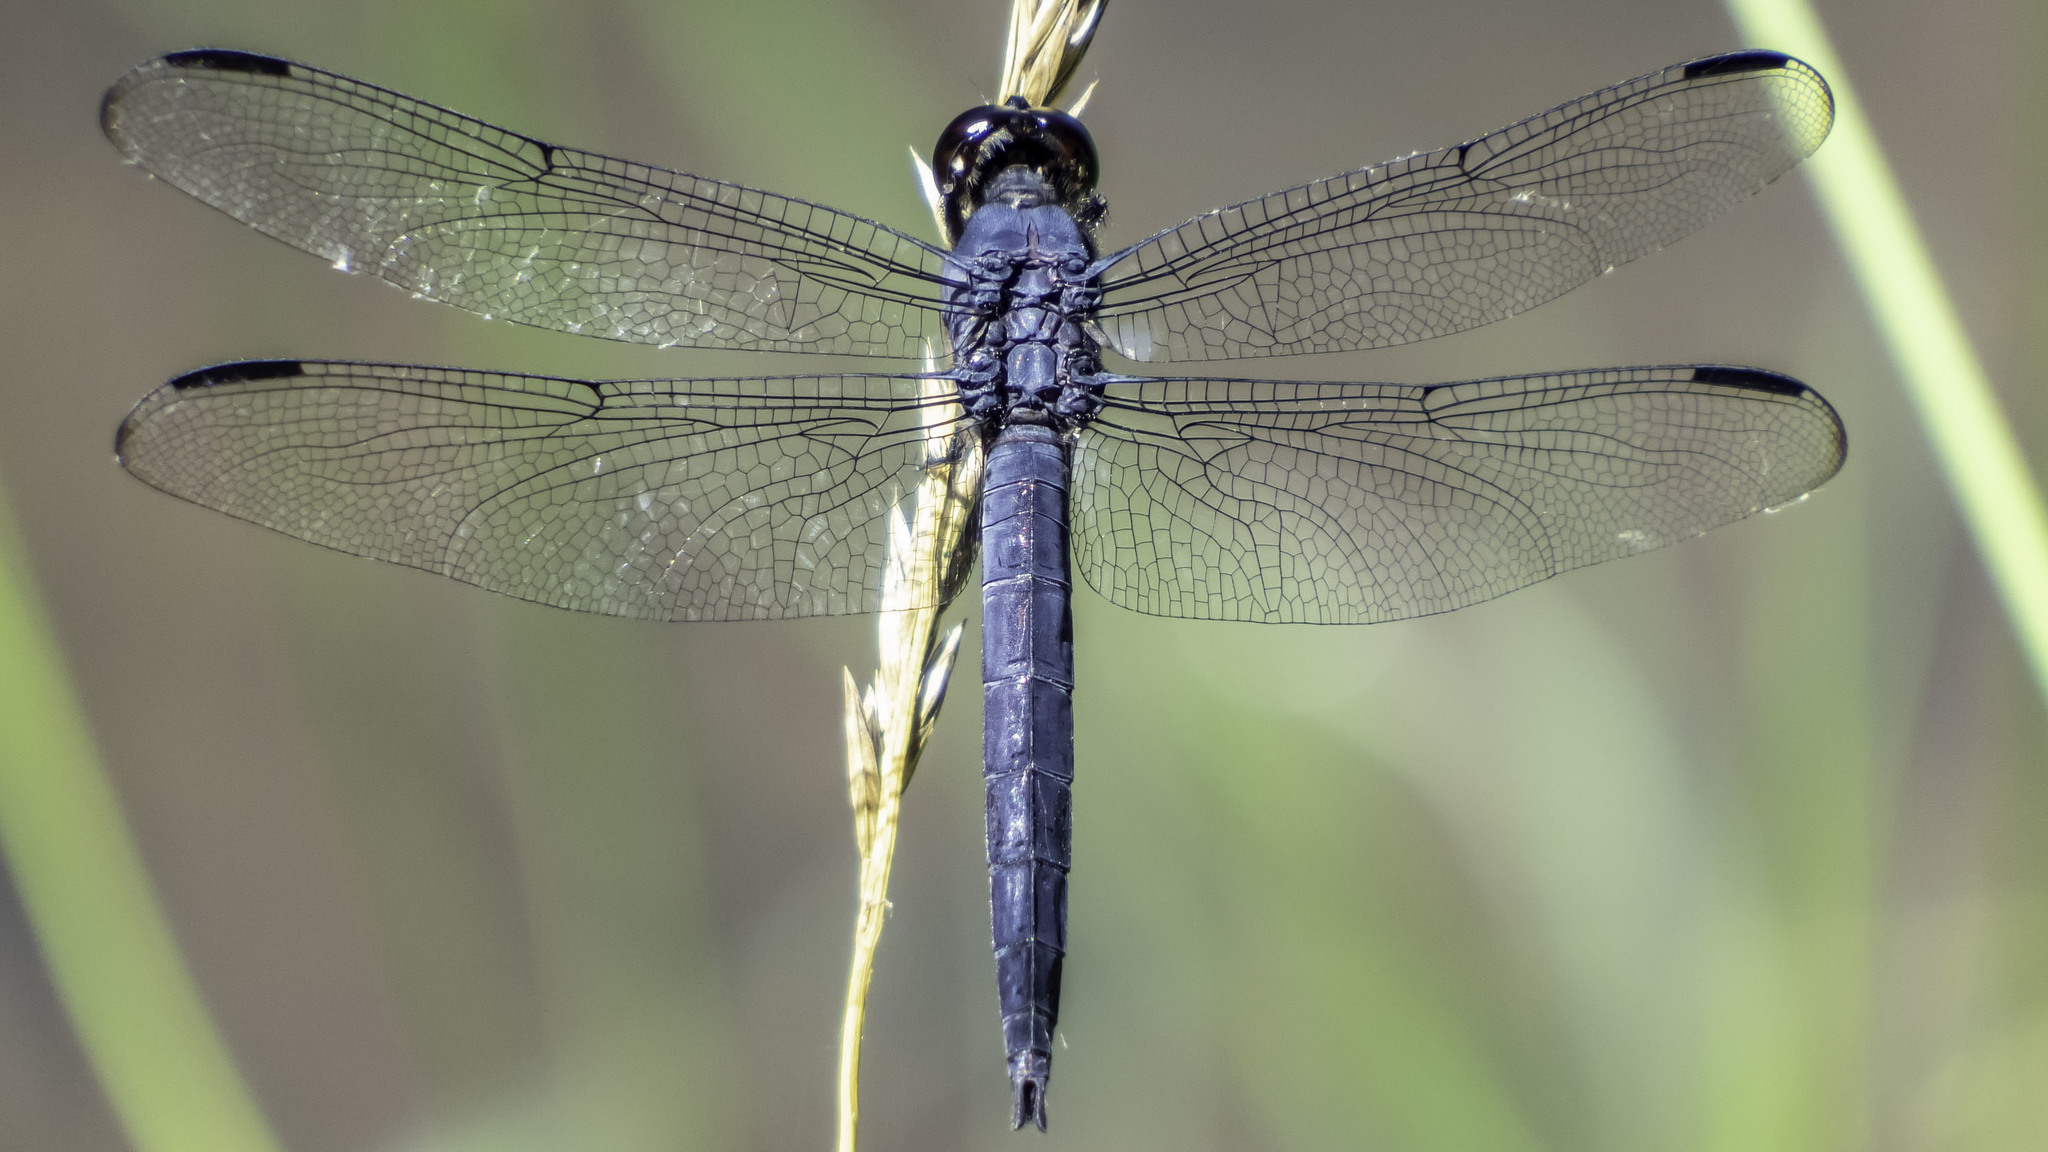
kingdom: Animalia
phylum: Arthropoda
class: Insecta
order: Odonata
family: Libellulidae
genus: Libellula
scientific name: Libellula incesta
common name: Slaty skimmer
